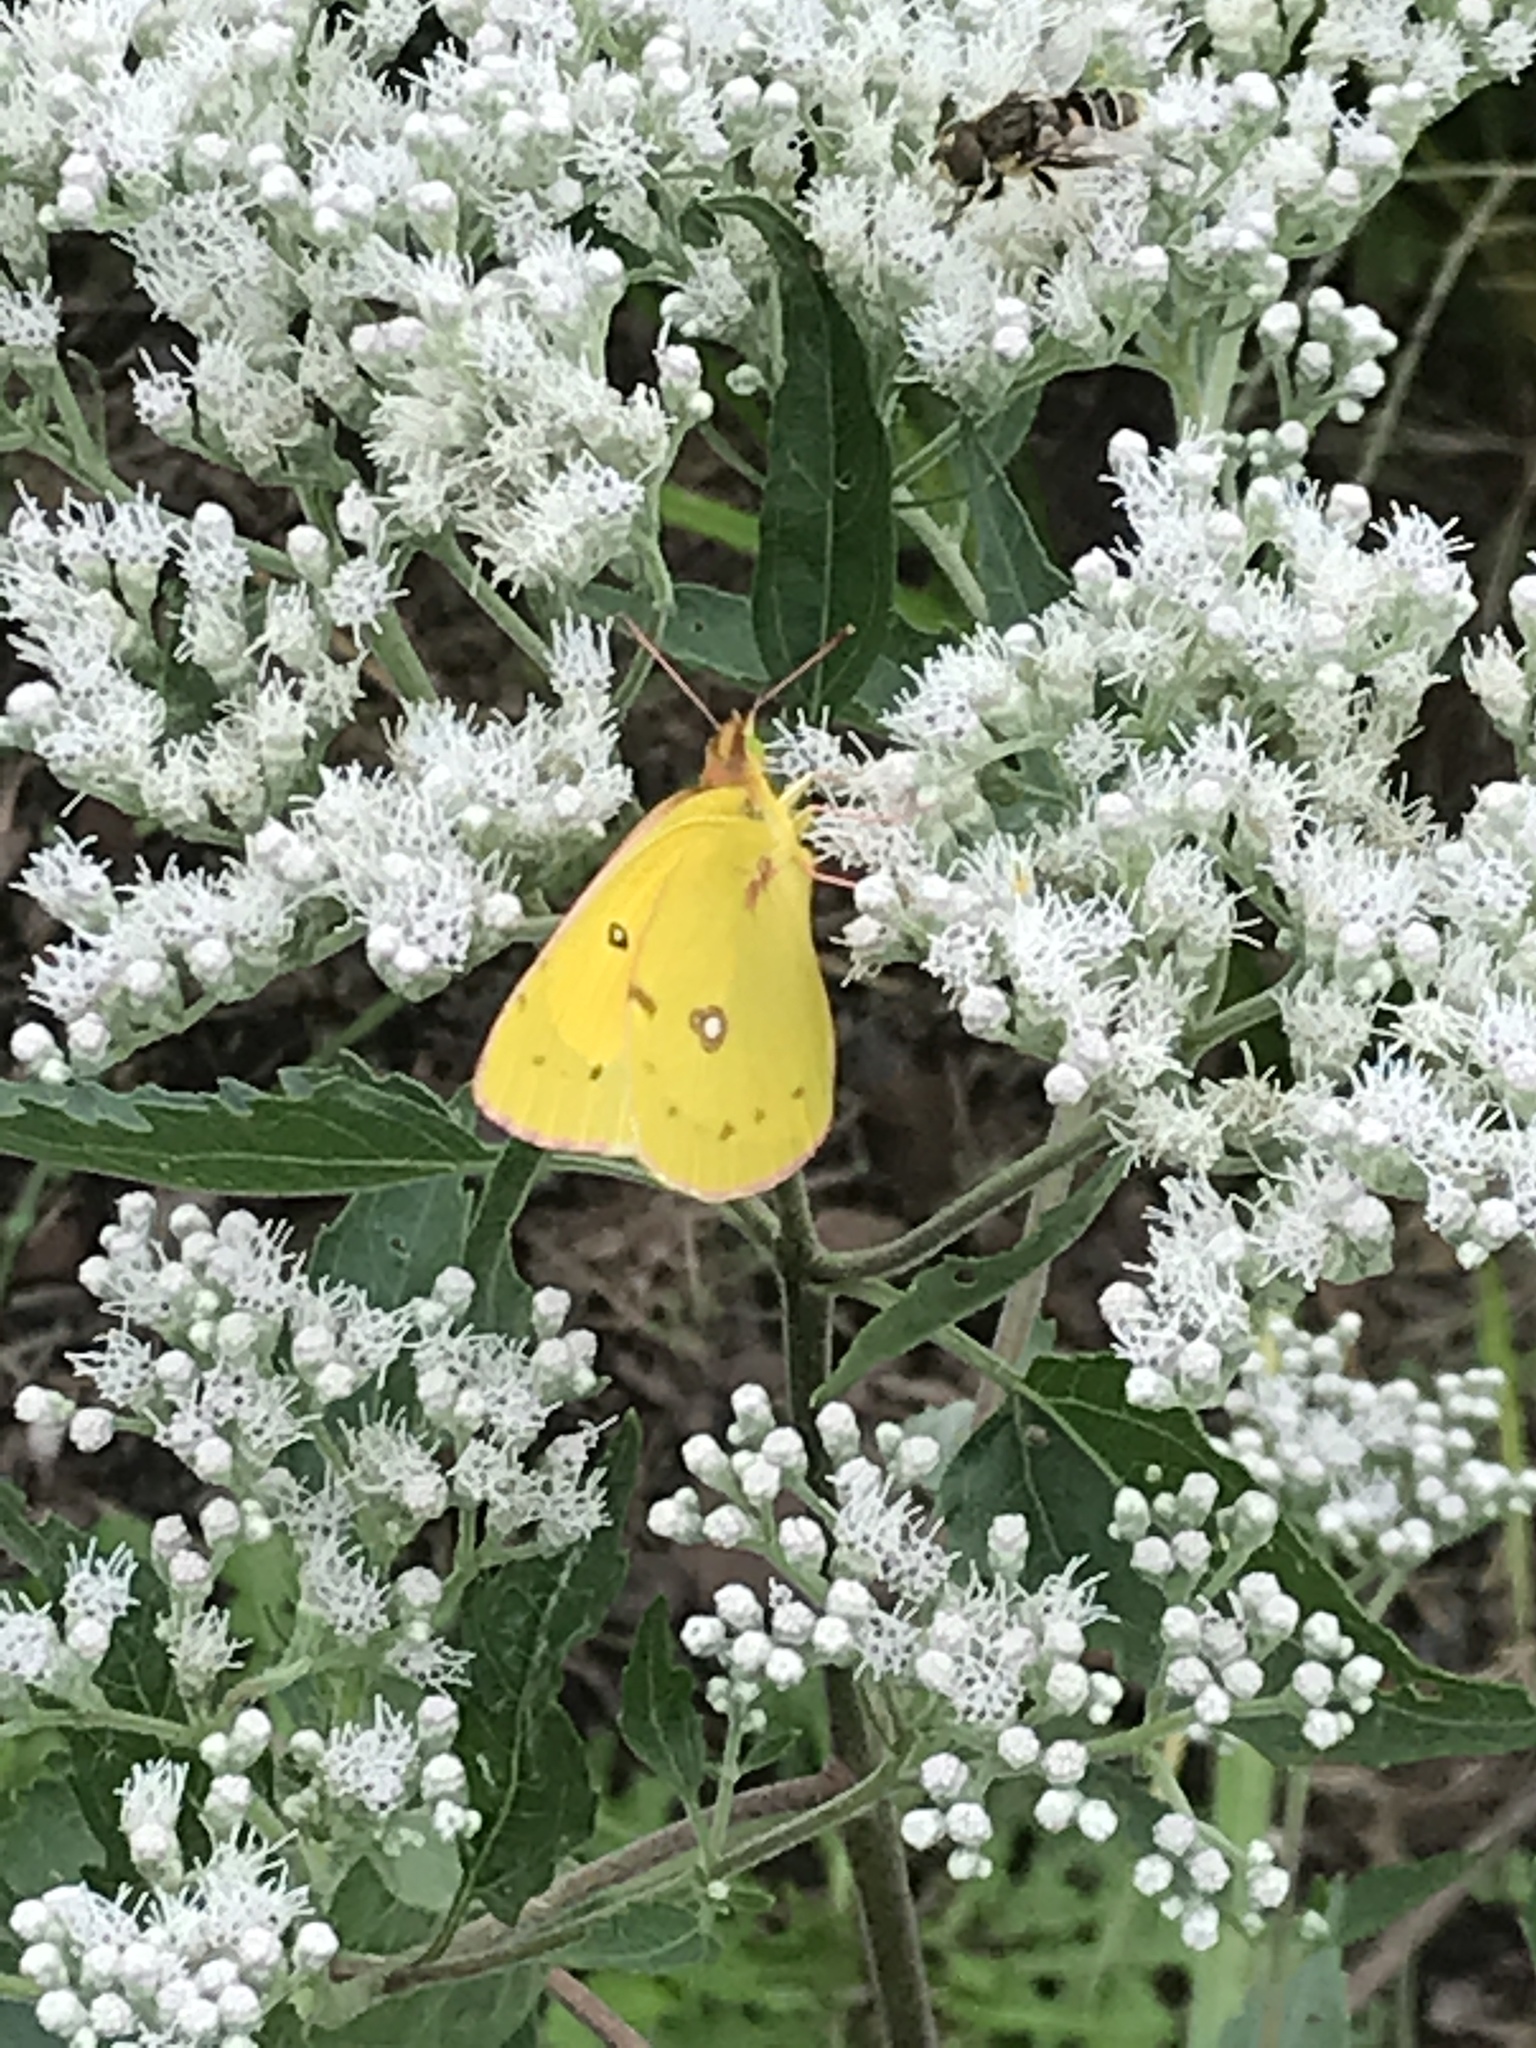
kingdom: Animalia
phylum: Arthropoda
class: Insecta
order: Lepidoptera
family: Pieridae
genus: Colias
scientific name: Colias eurytheme
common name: Alfalfa butterfly
